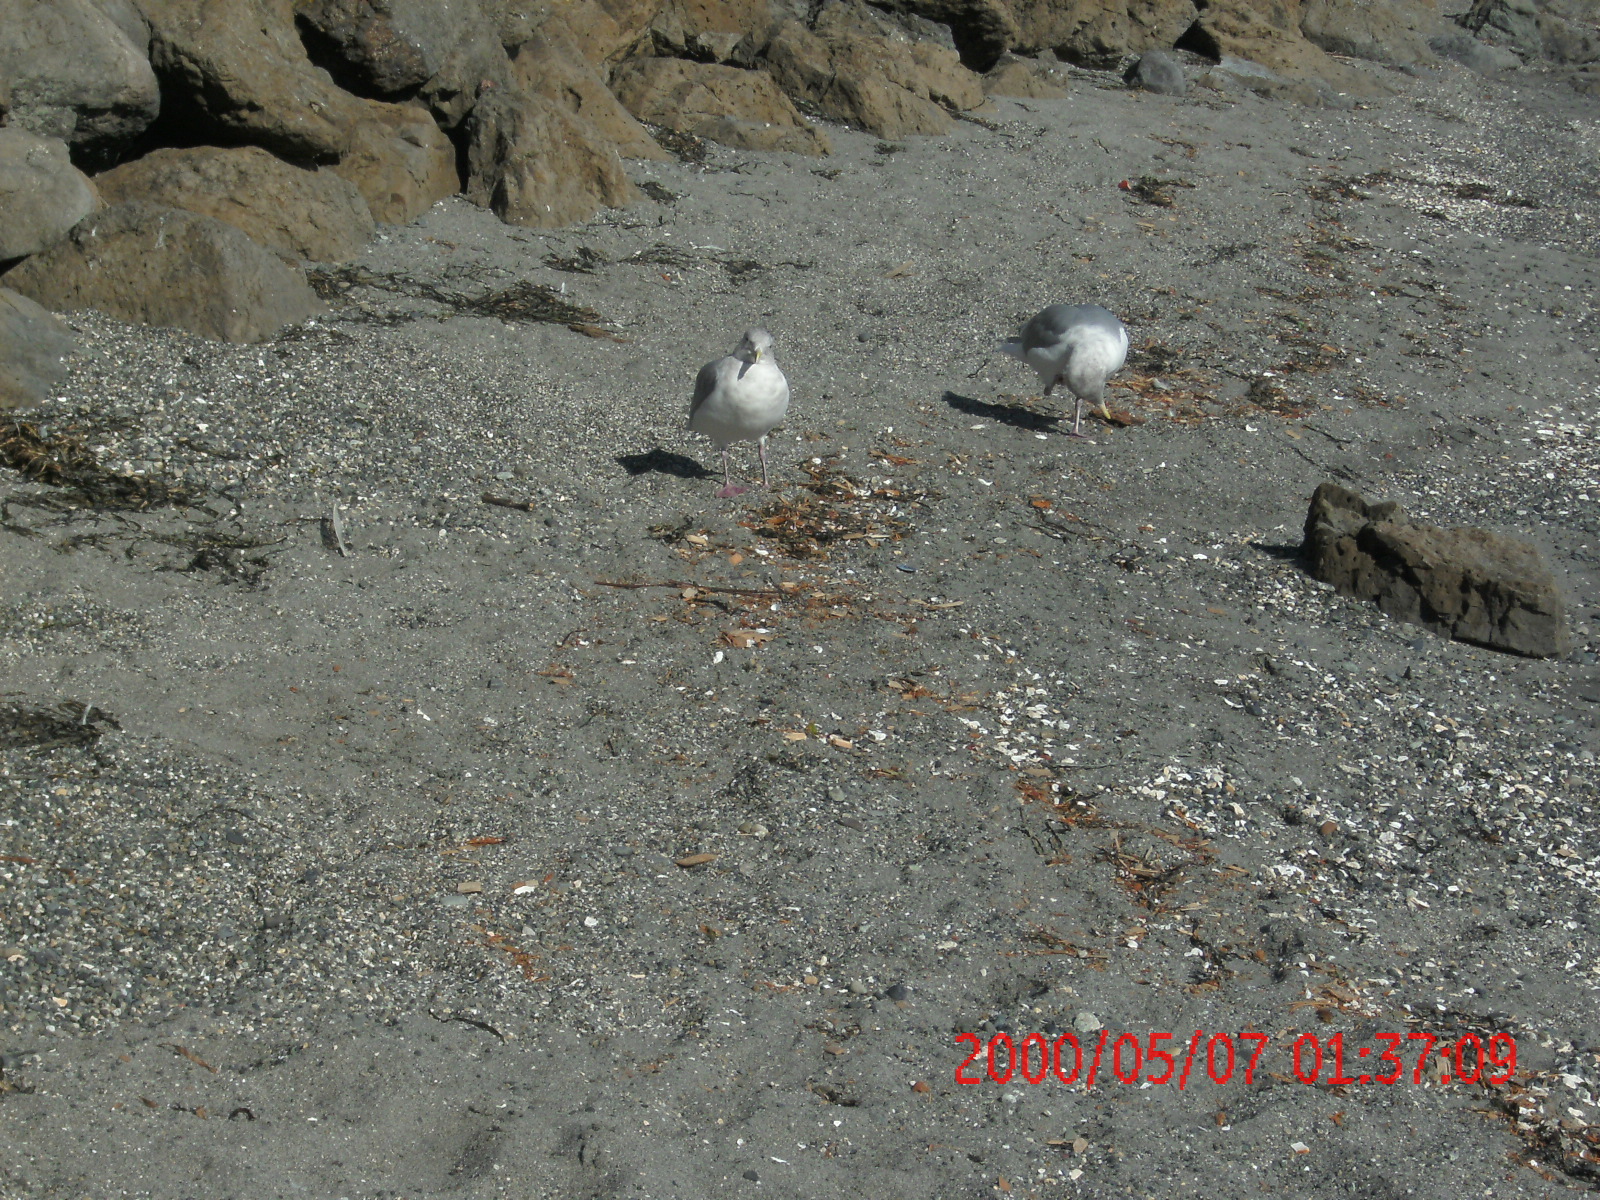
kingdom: Animalia
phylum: Chordata
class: Aves
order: Charadriiformes
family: Laridae
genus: Larus
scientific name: Larus
